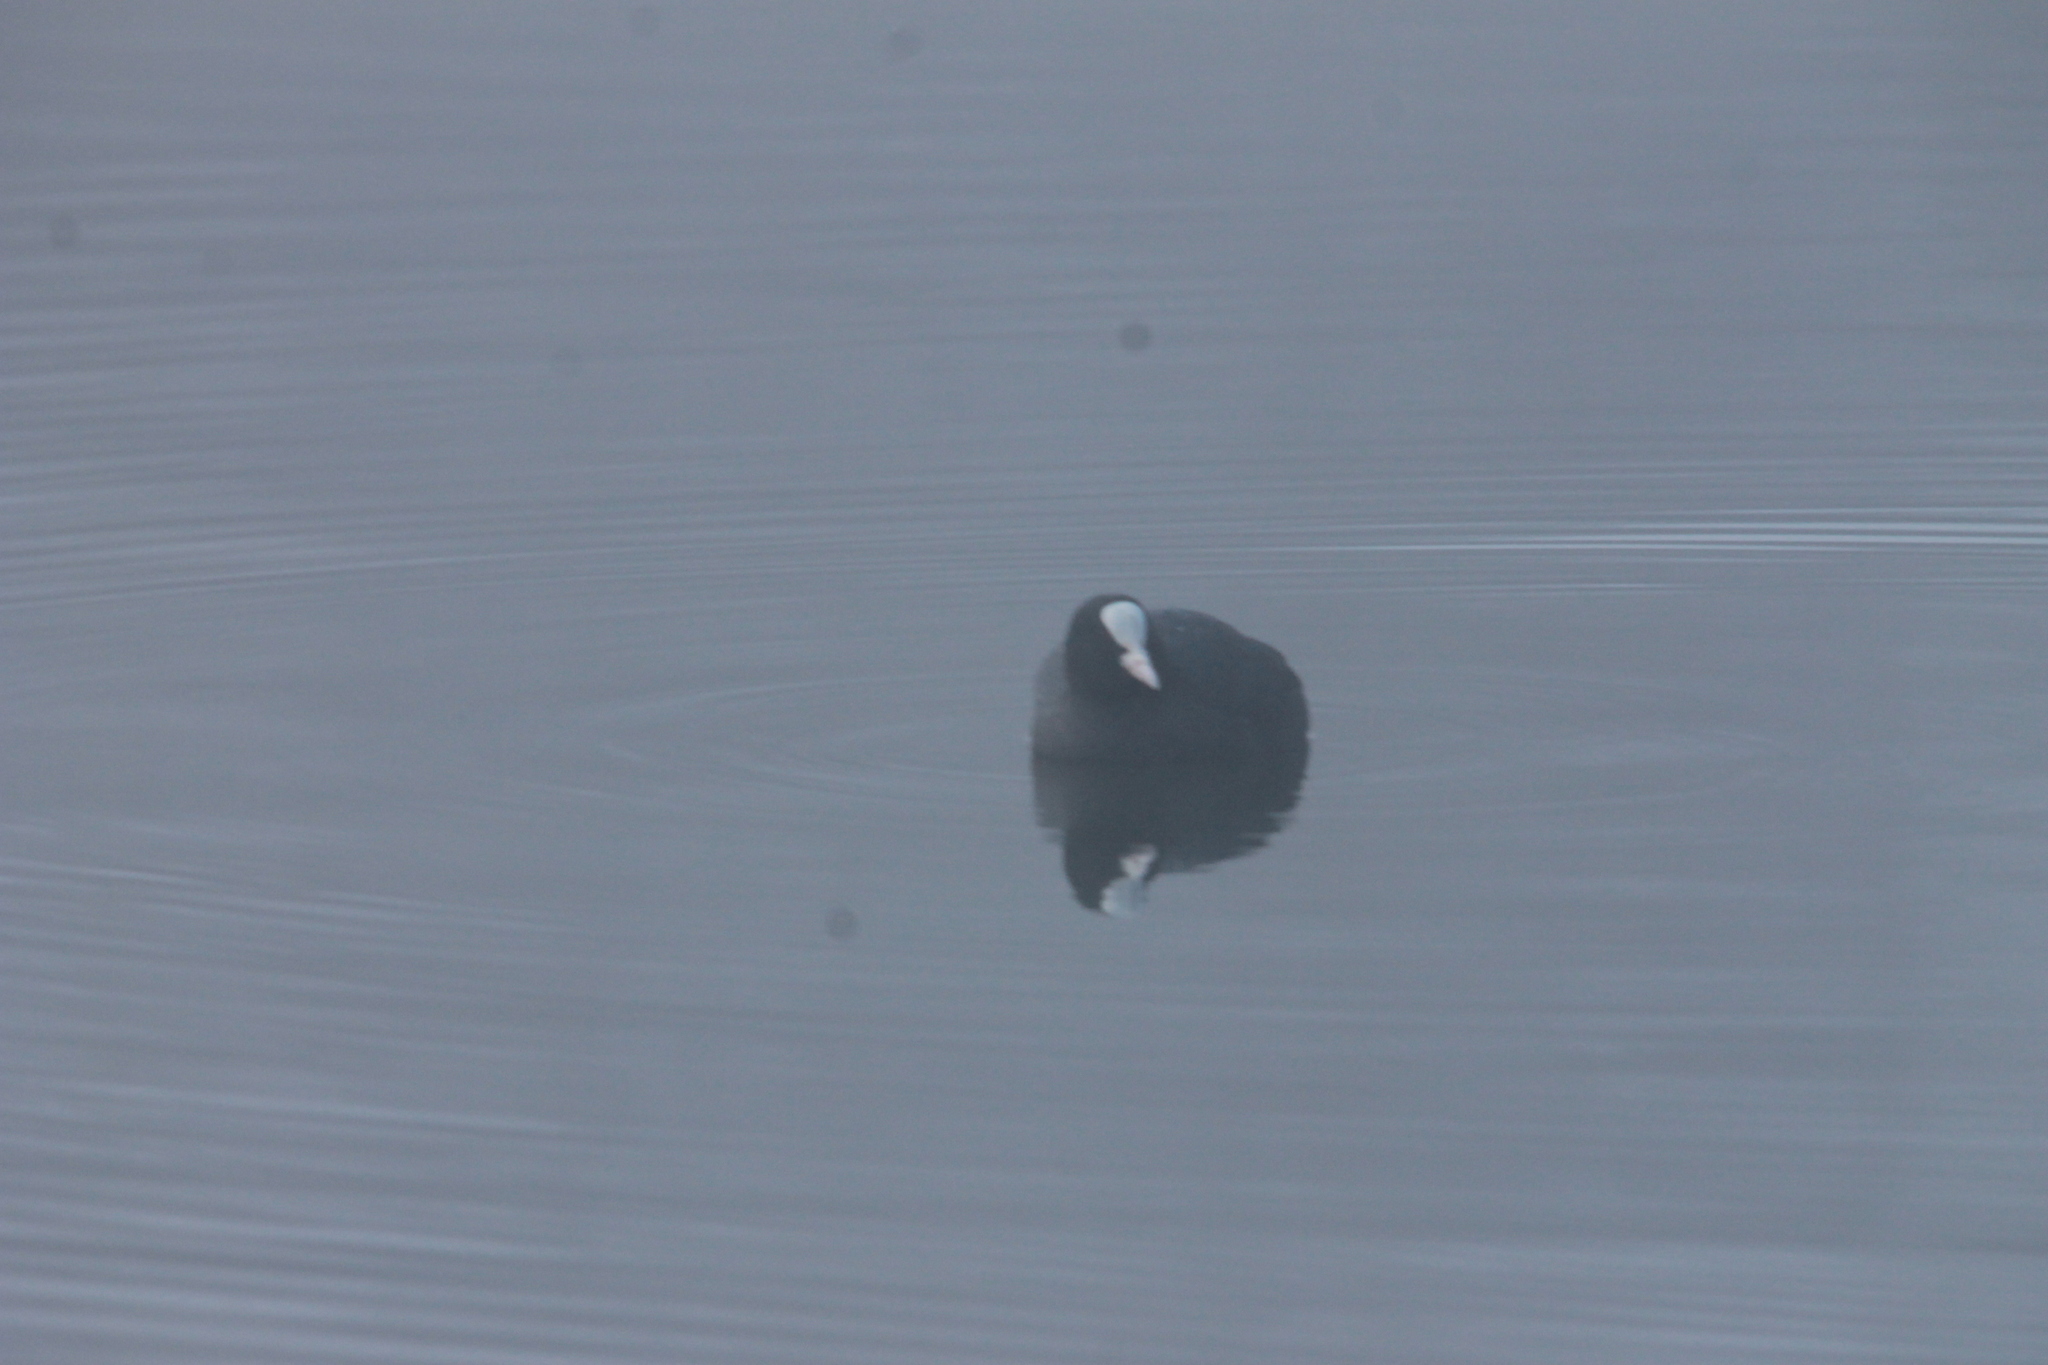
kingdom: Animalia
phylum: Chordata
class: Aves
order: Gruiformes
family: Rallidae
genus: Fulica
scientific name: Fulica atra
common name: Eurasian coot
